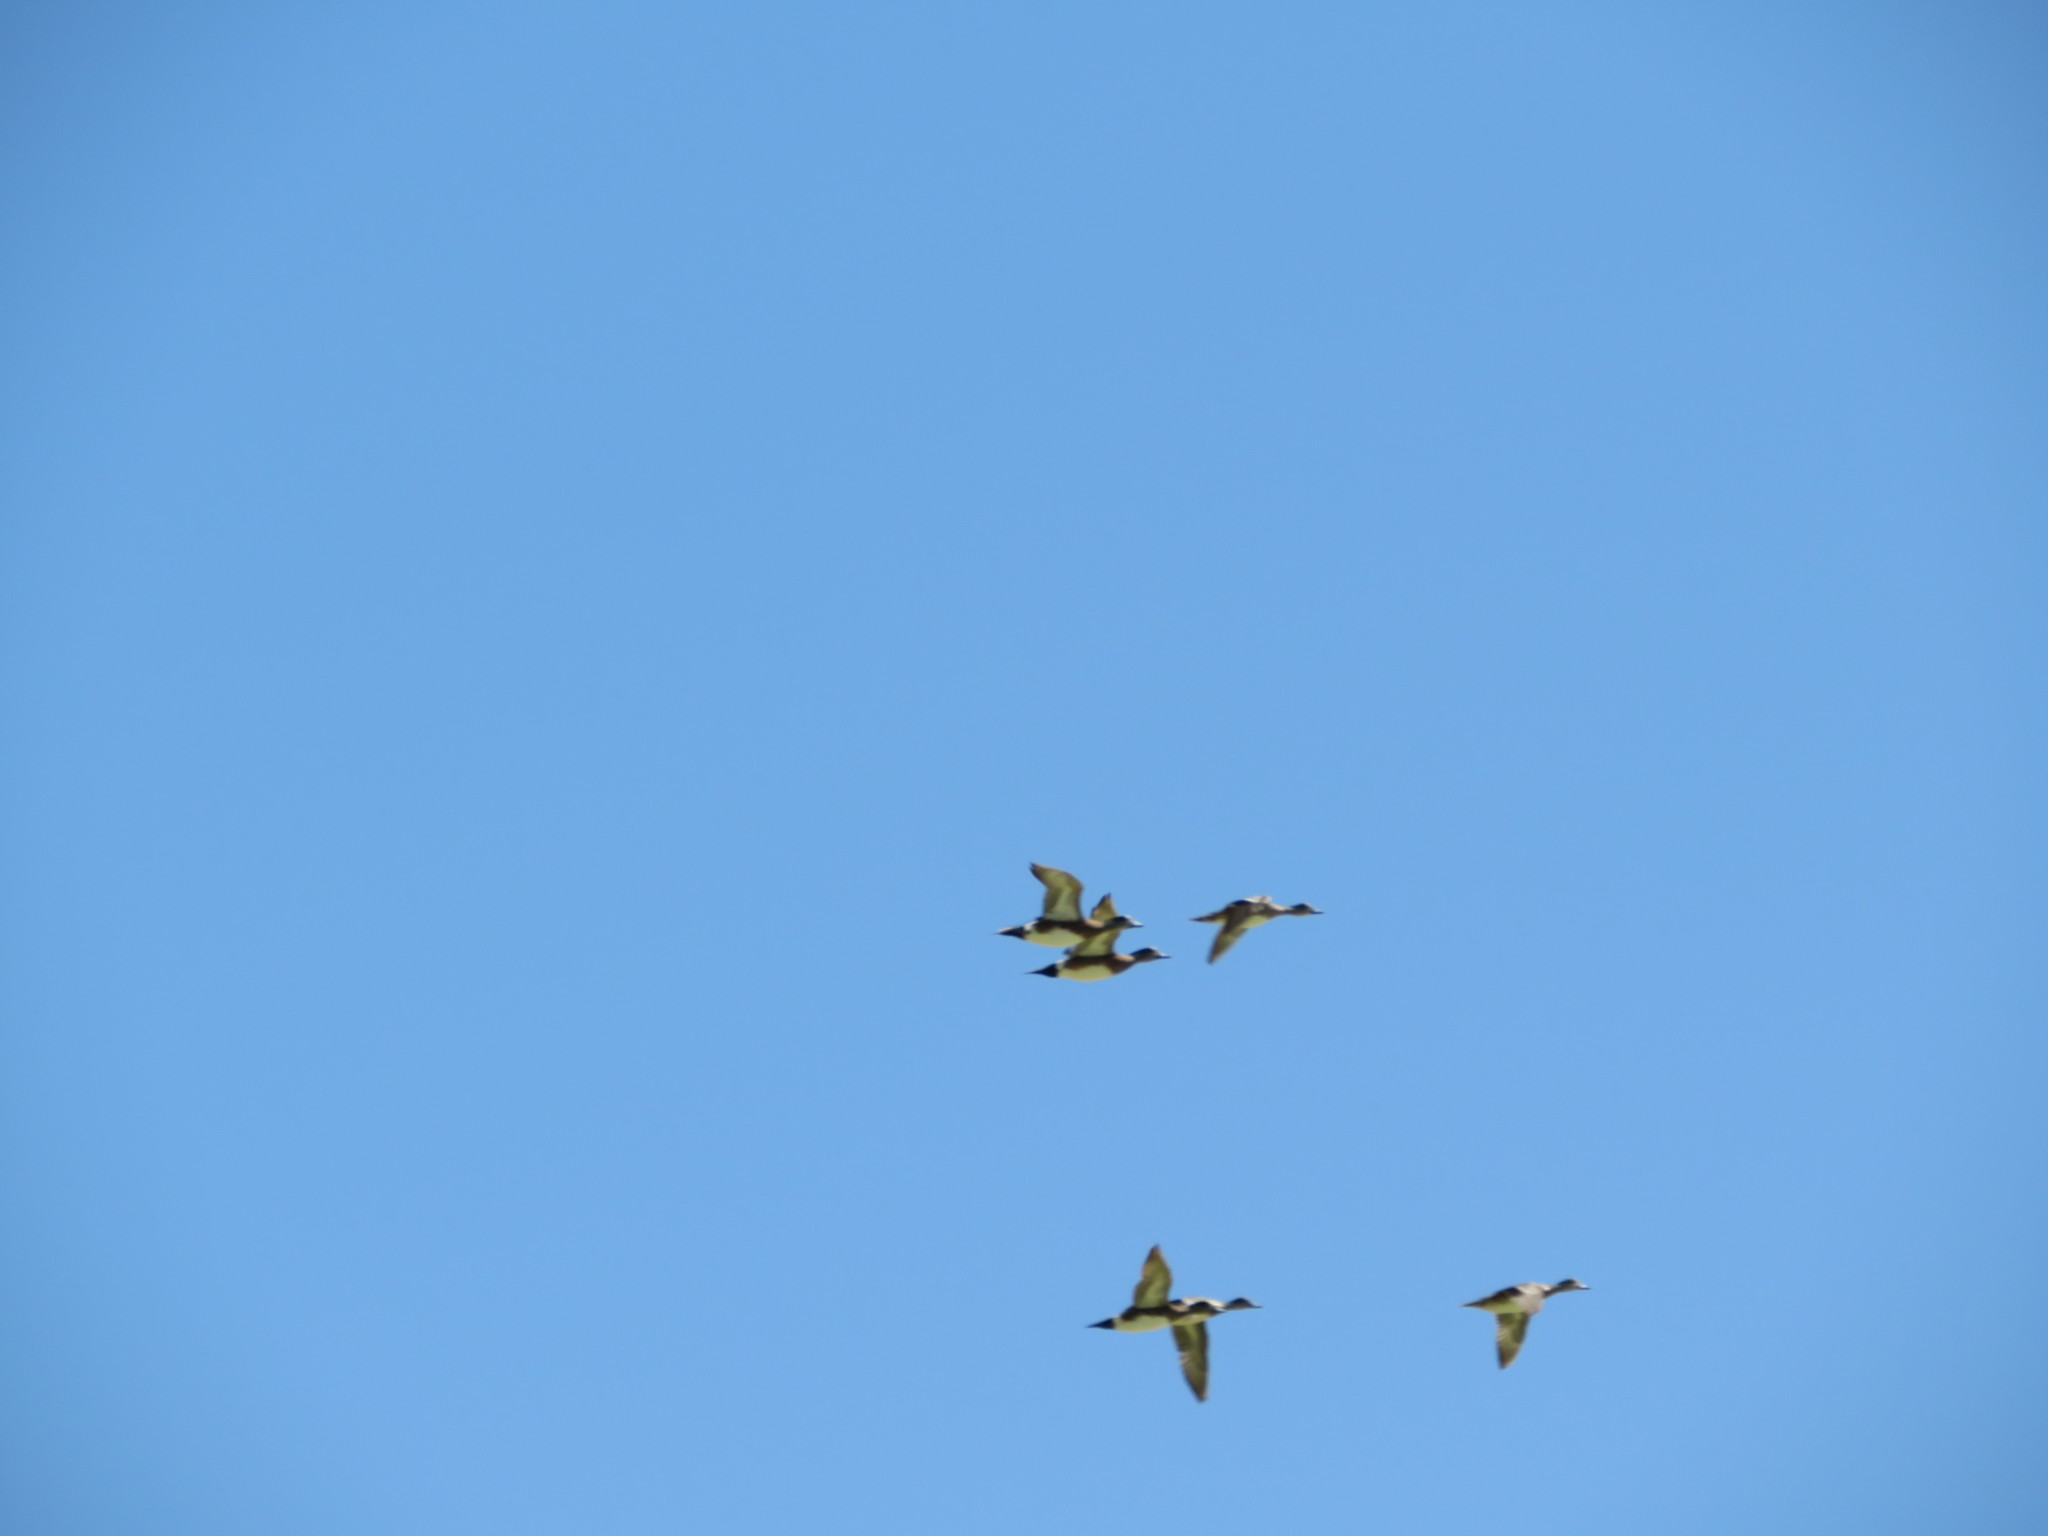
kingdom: Animalia
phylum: Chordata
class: Aves
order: Anseriformes
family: Anatidae
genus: Mareca
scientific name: Mareca americana
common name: American wigeon
